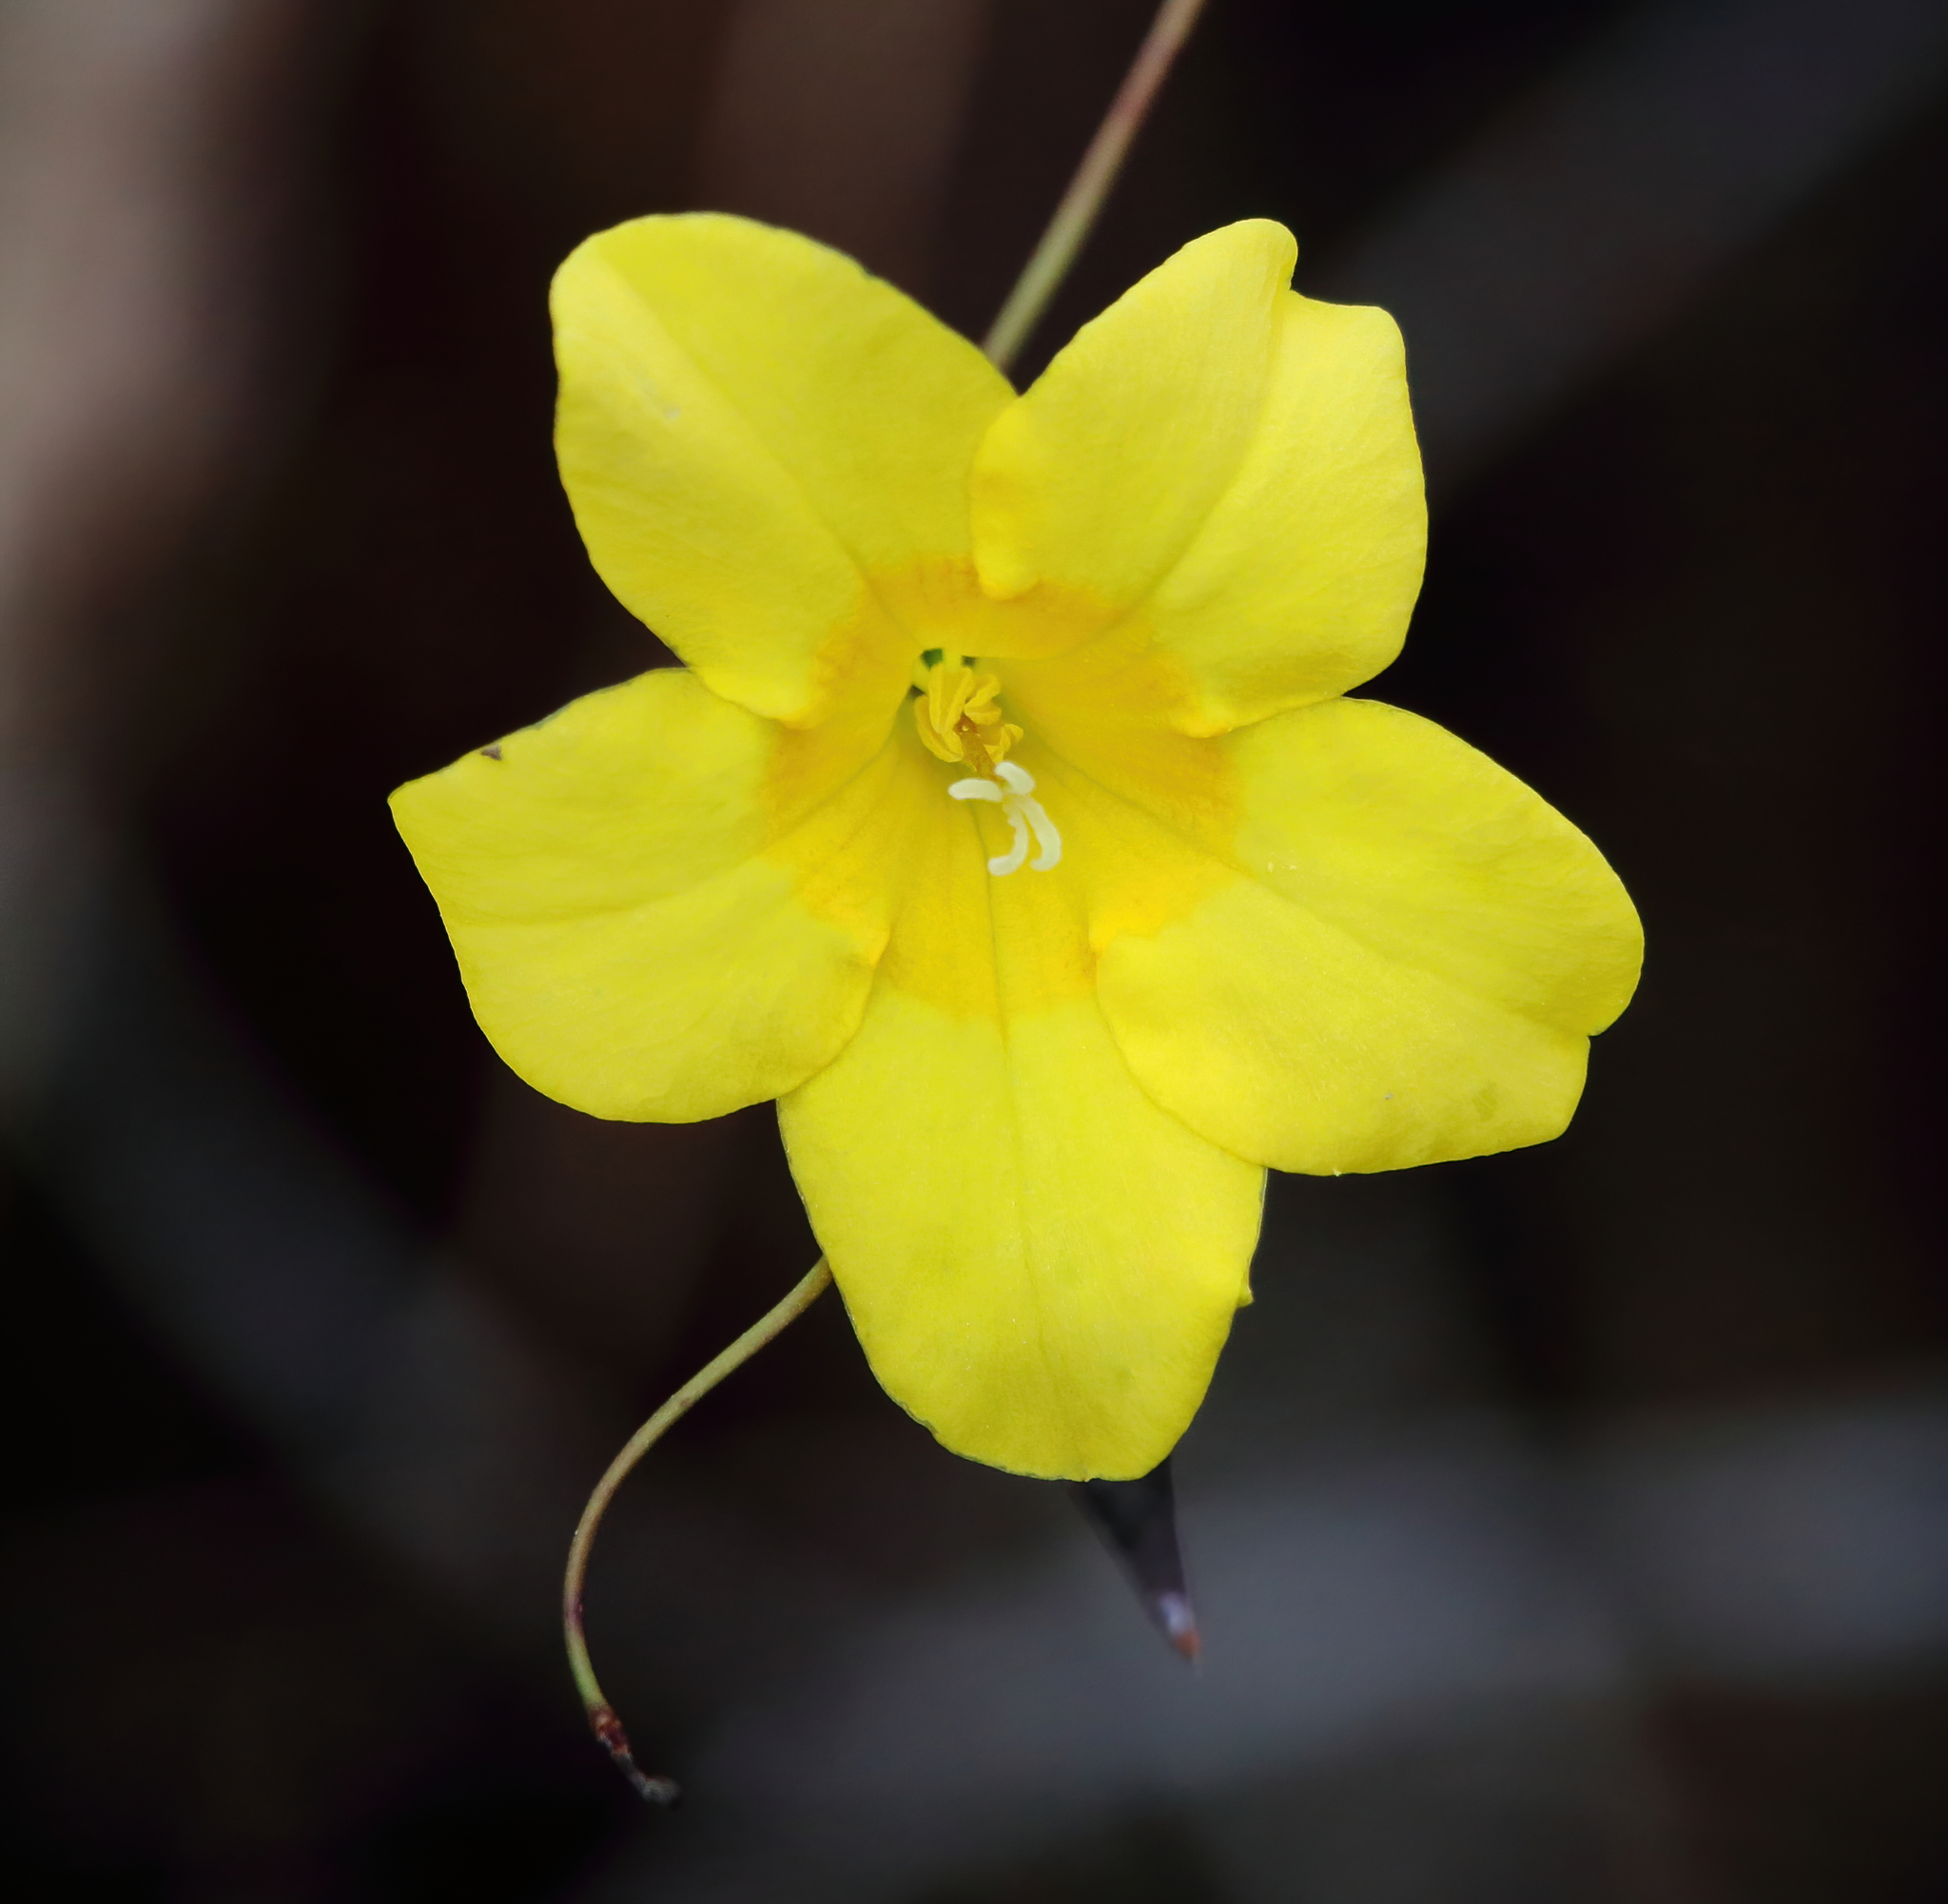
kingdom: Plantae
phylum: Tracheophyta
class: Magnoliopsida
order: Gentianales
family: Gelsemiaceae
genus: Gelsemium
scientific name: Gelsemium sempervirens
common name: Carolina-jasmine
